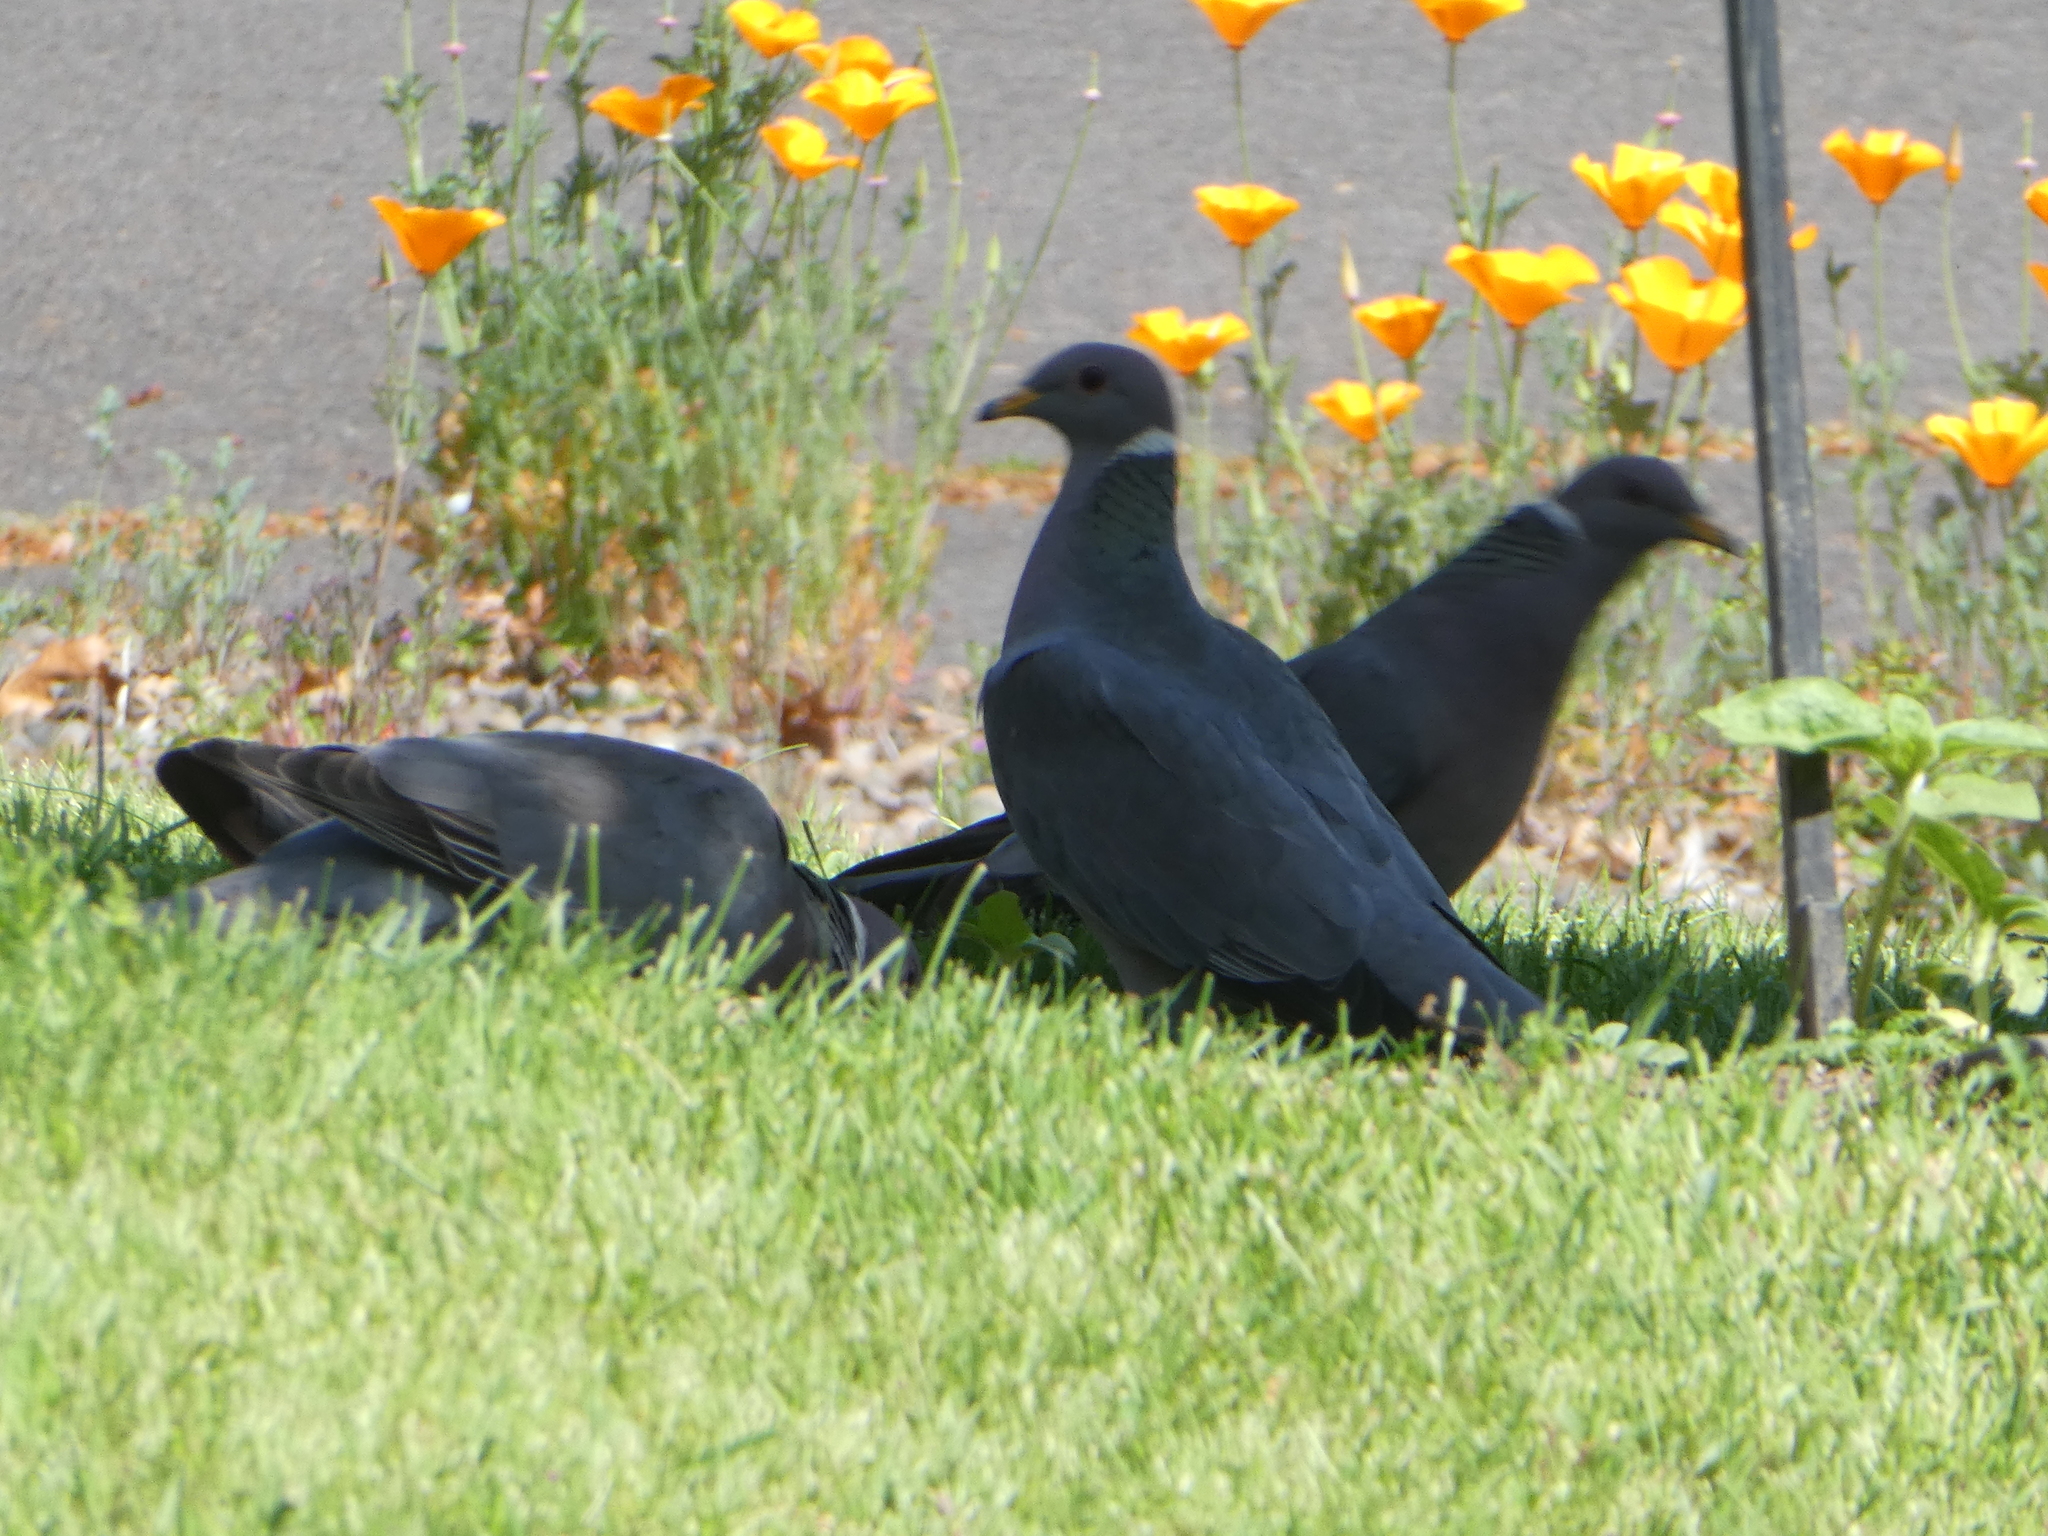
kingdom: Animalia
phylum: Chordata
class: Aves
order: Columbiformes
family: Columbidae
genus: Patagioenas
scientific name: Patagioenas fasciata
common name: Band-tailed pigeon
